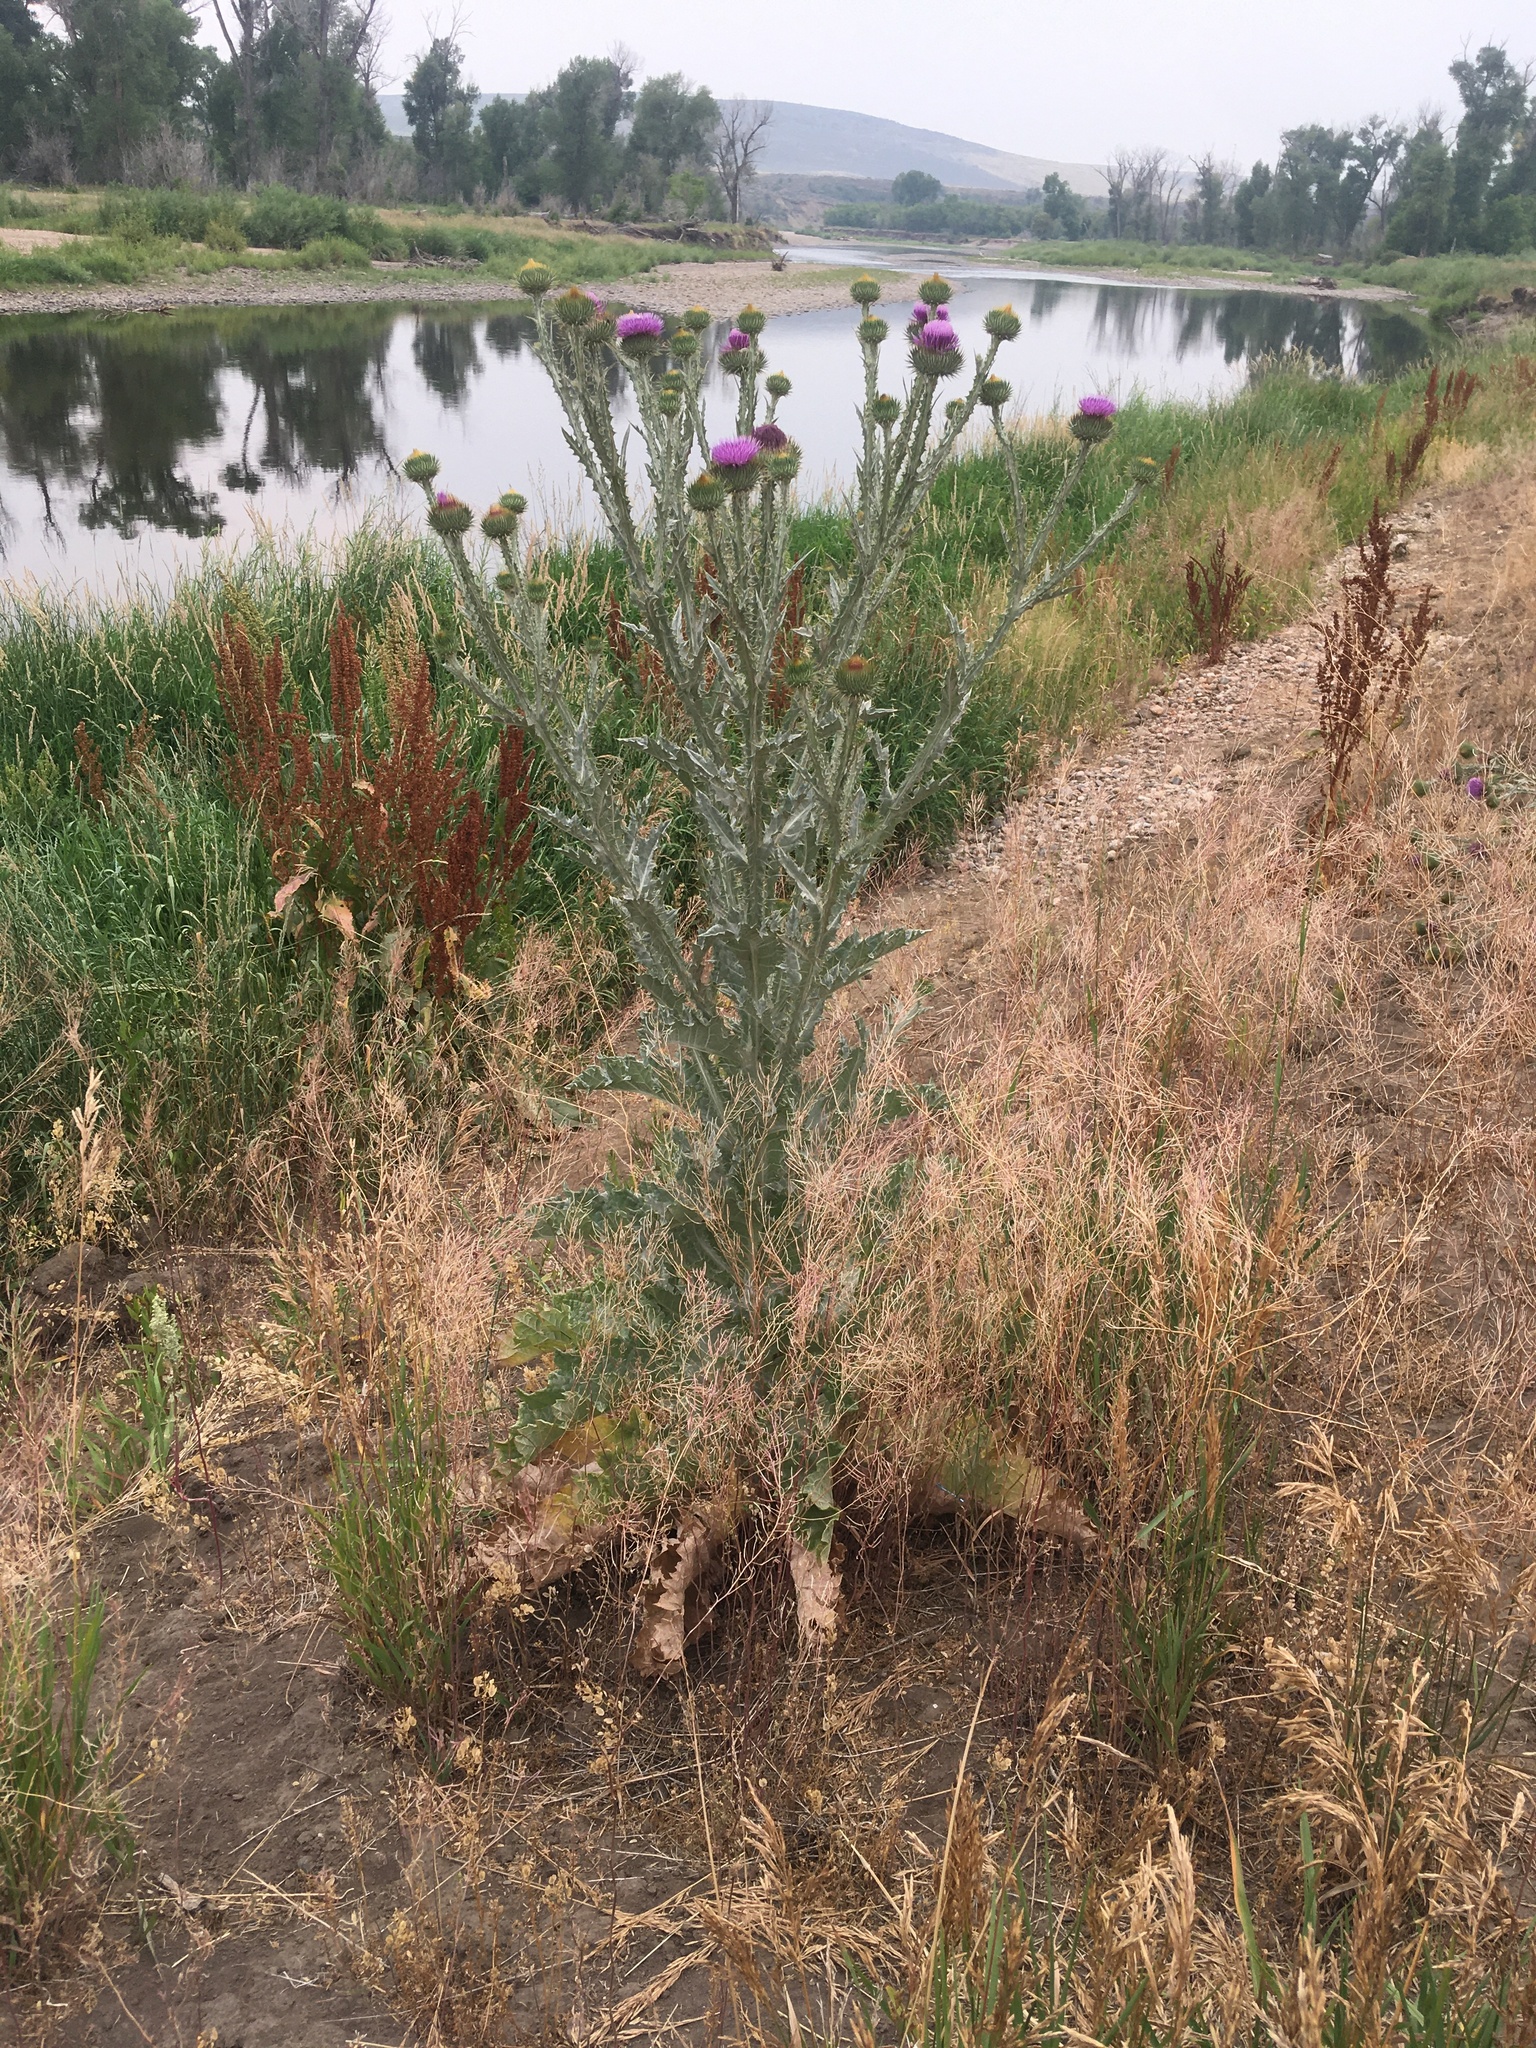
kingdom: Plantae
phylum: Tracheophyta
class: Magnoliopsida
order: Asterales
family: Asteraceae
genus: Onopordum
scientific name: Onopordum acanthium
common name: Scotch thistle
